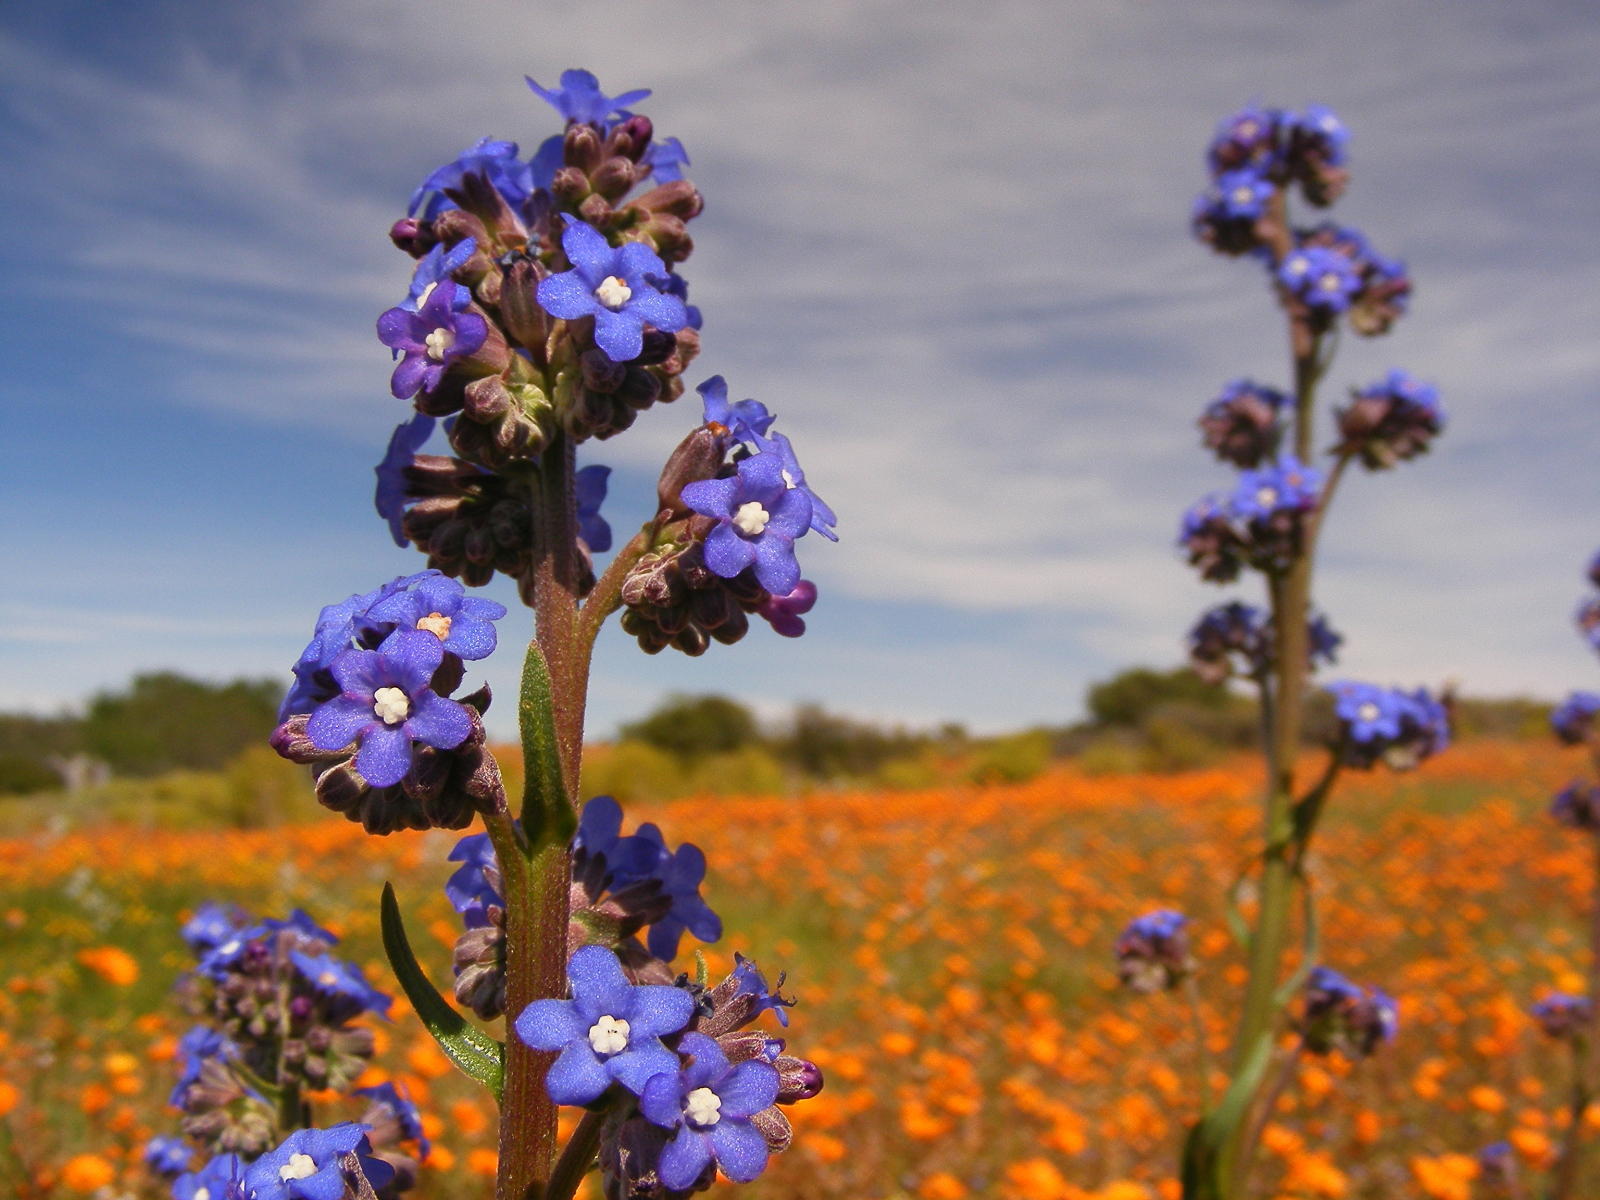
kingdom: Plantae
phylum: Tracheophyta
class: Magnoliopsida
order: Boraginales
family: Boraginaceae
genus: Anchusa
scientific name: Anchusa capensis
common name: Cape bugloss
